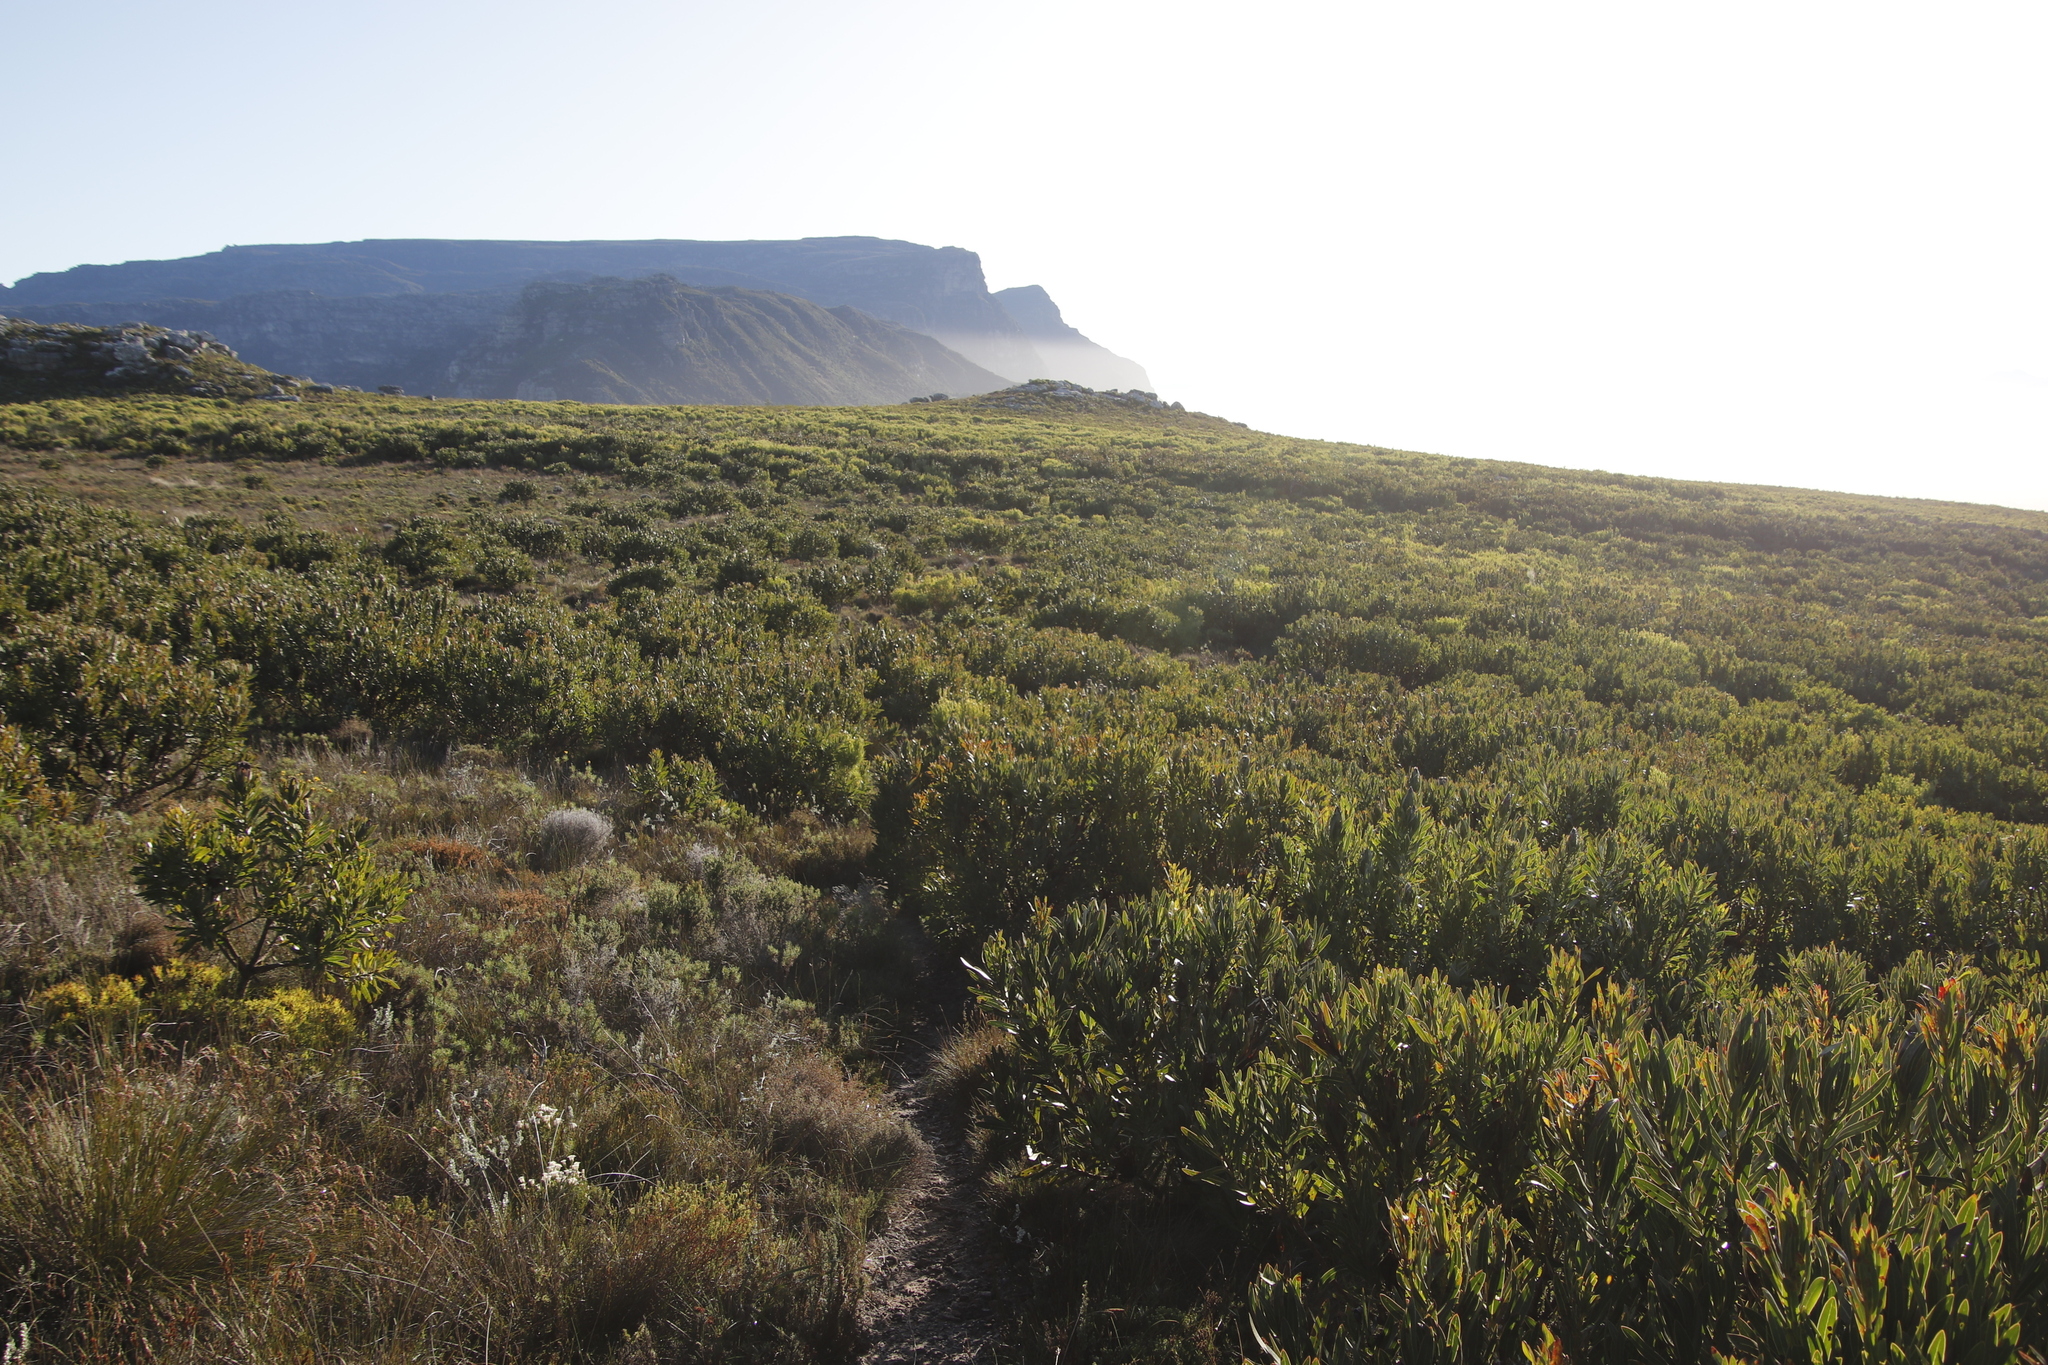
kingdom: Plantae
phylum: Tracheophyta
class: Magnoliopsida
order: Proteales
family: Proteaceae
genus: Protea
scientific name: Protea lepidocarpodendron
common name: Black-bearded protea
